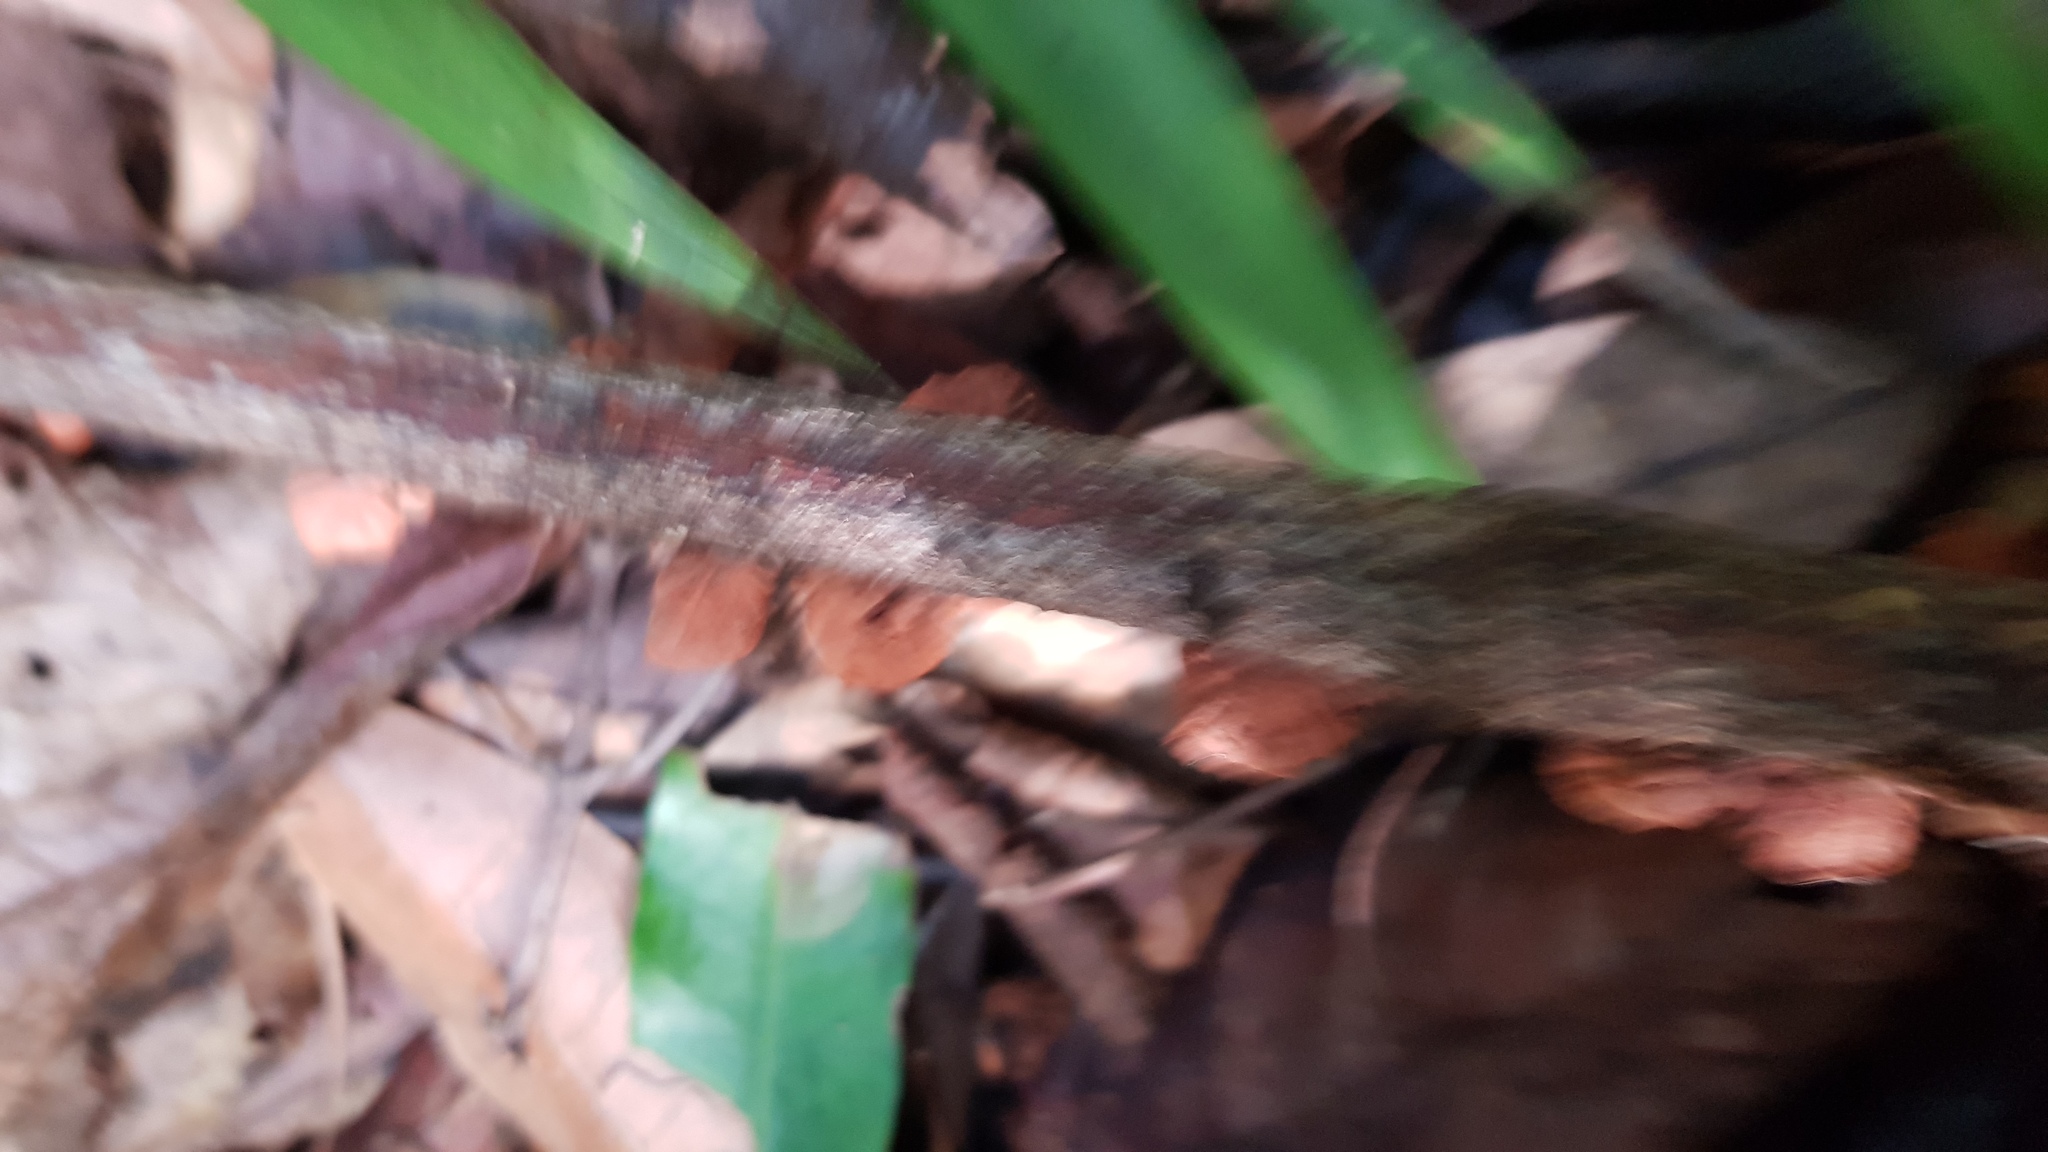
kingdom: Fungi
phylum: Basidiomycota
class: Agaricomycetes
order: Agaricales
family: Omphalotaceae
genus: Anthracophyllum
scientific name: Anthracophyllum archeri
